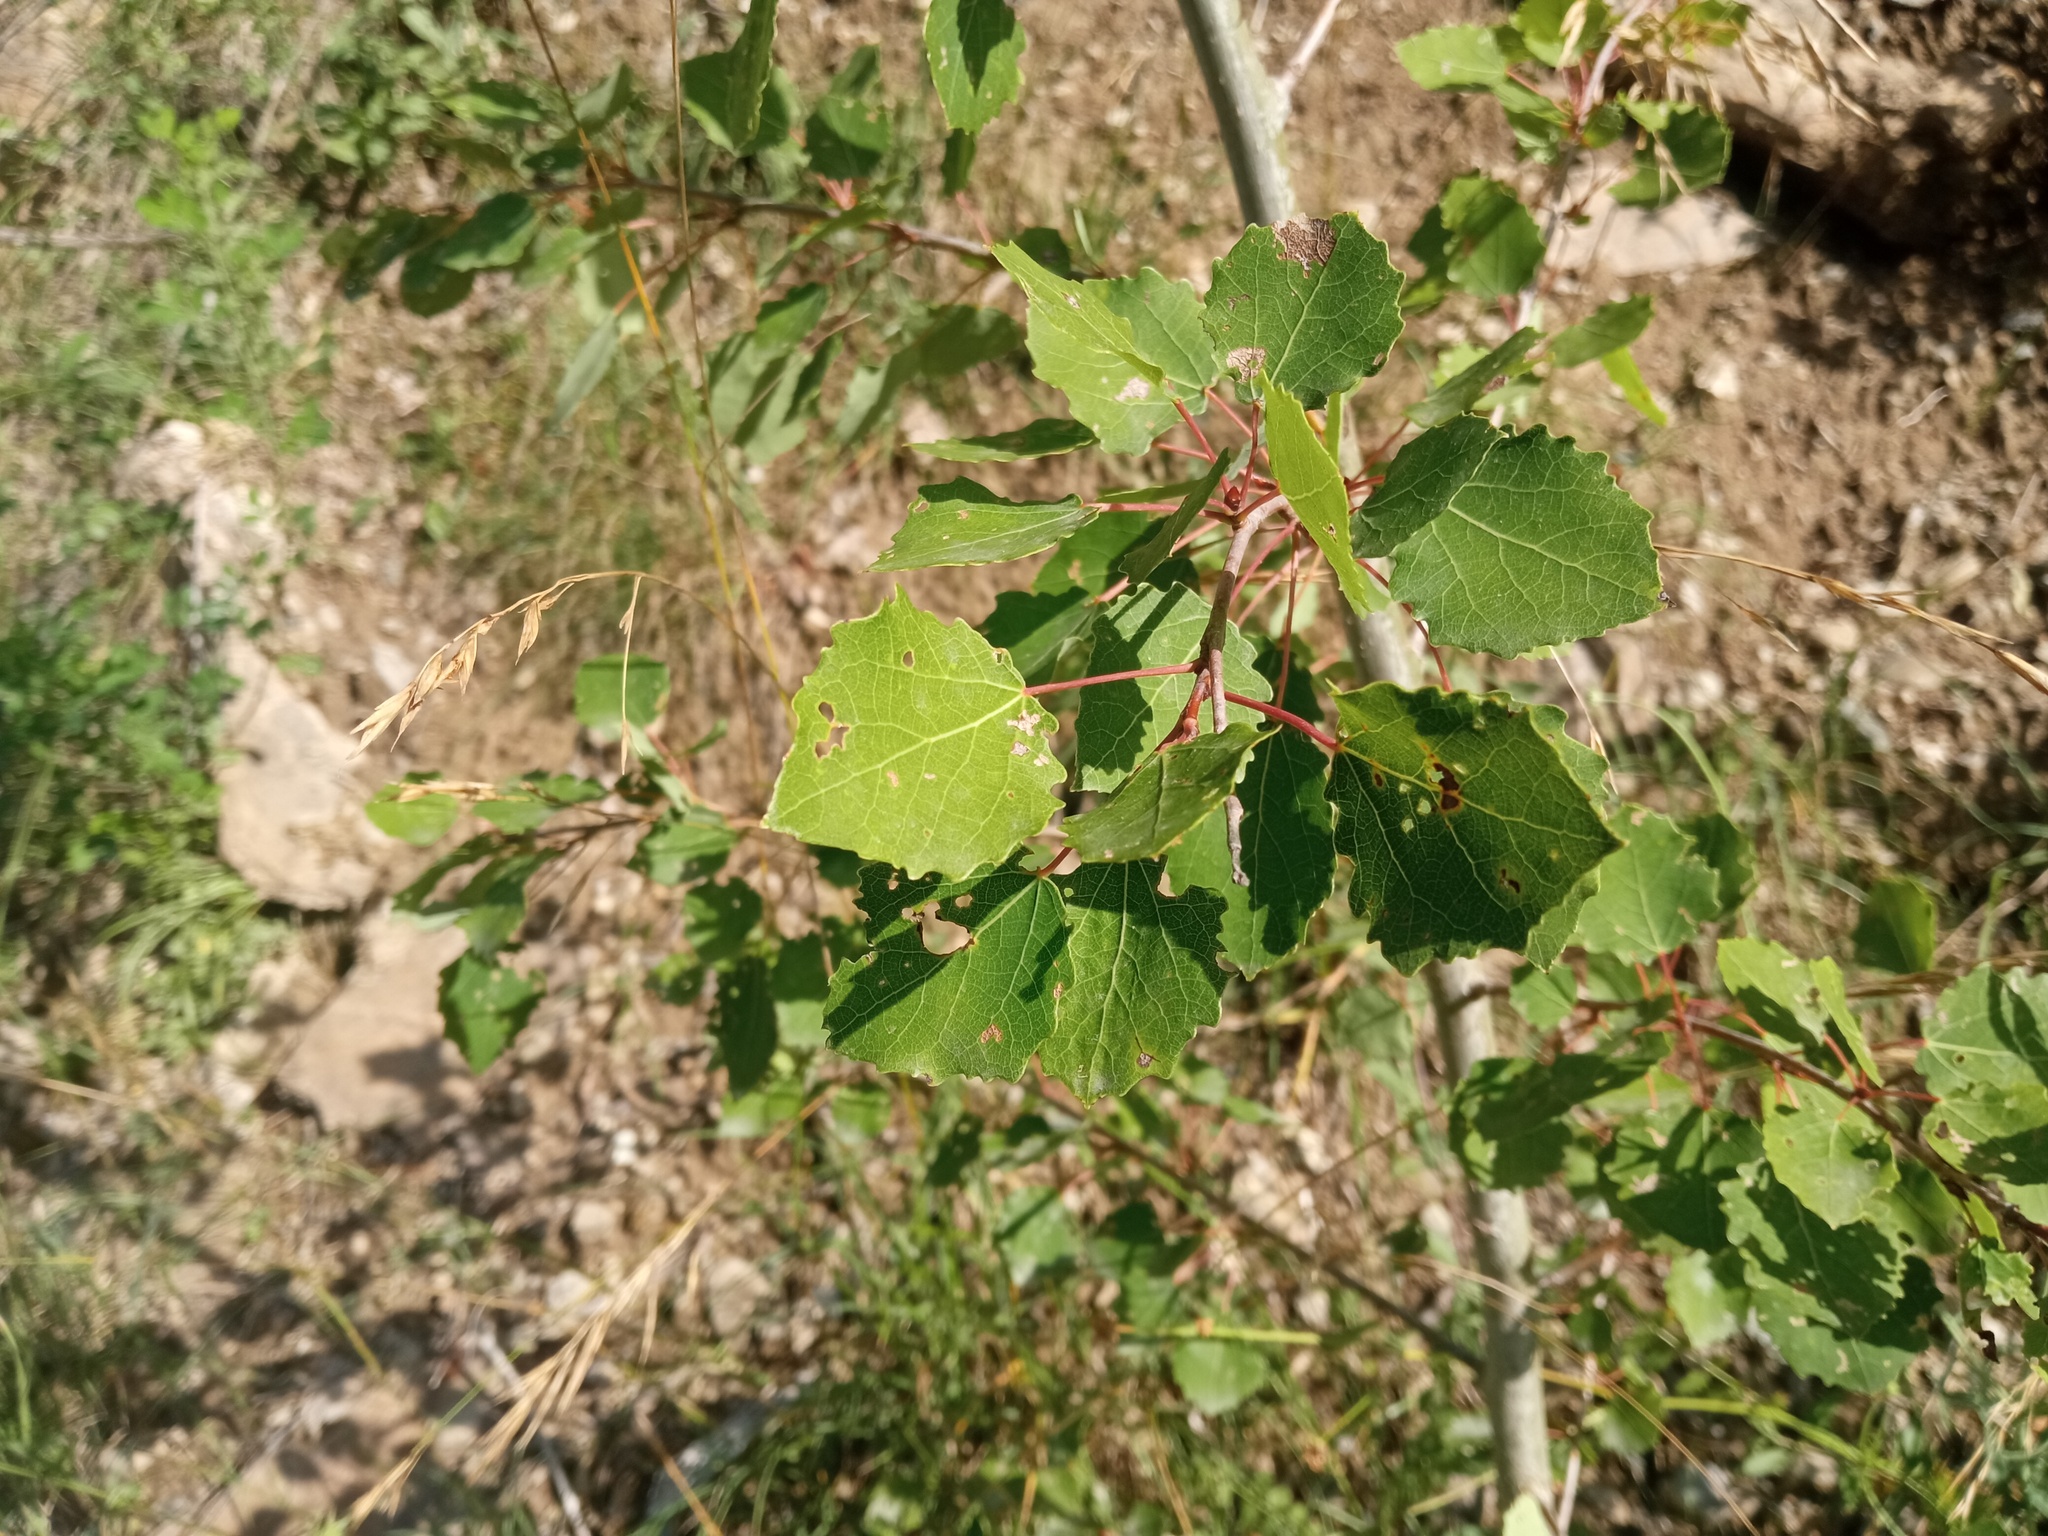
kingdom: Plantae
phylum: Tracheophyta
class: Magnoliopsida
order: Malpighiales
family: Salicaceae
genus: Populus
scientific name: Populus tremula
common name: European aspen
